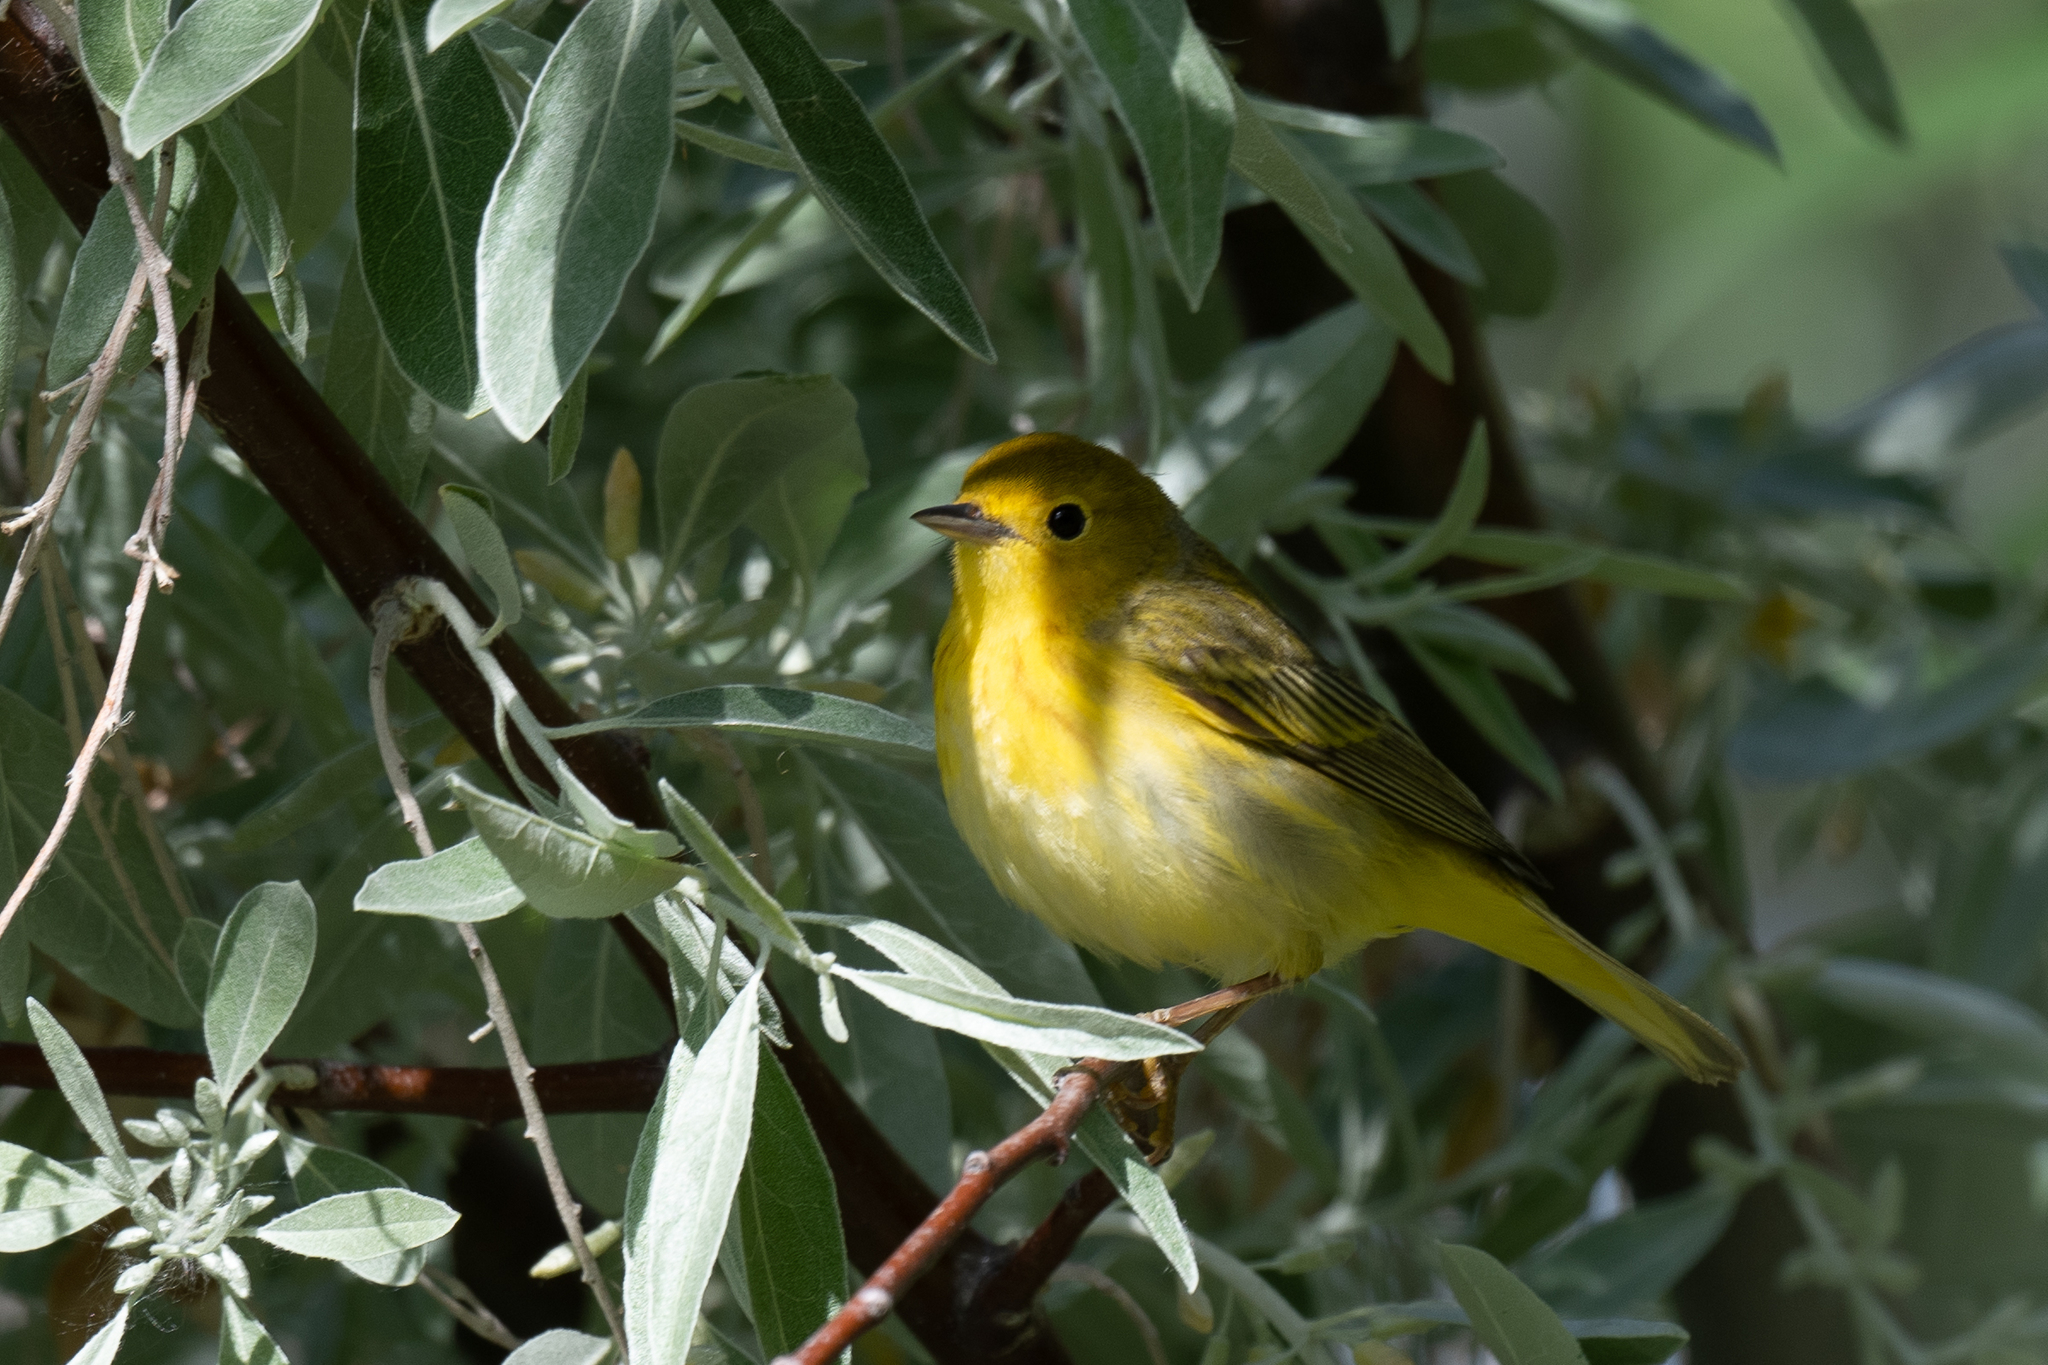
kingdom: Animalia
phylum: Chordata
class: Aves
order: Passeriformes
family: Parulidae
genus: Setophaga
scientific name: Setophaga petechia
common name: Yellow warbler
